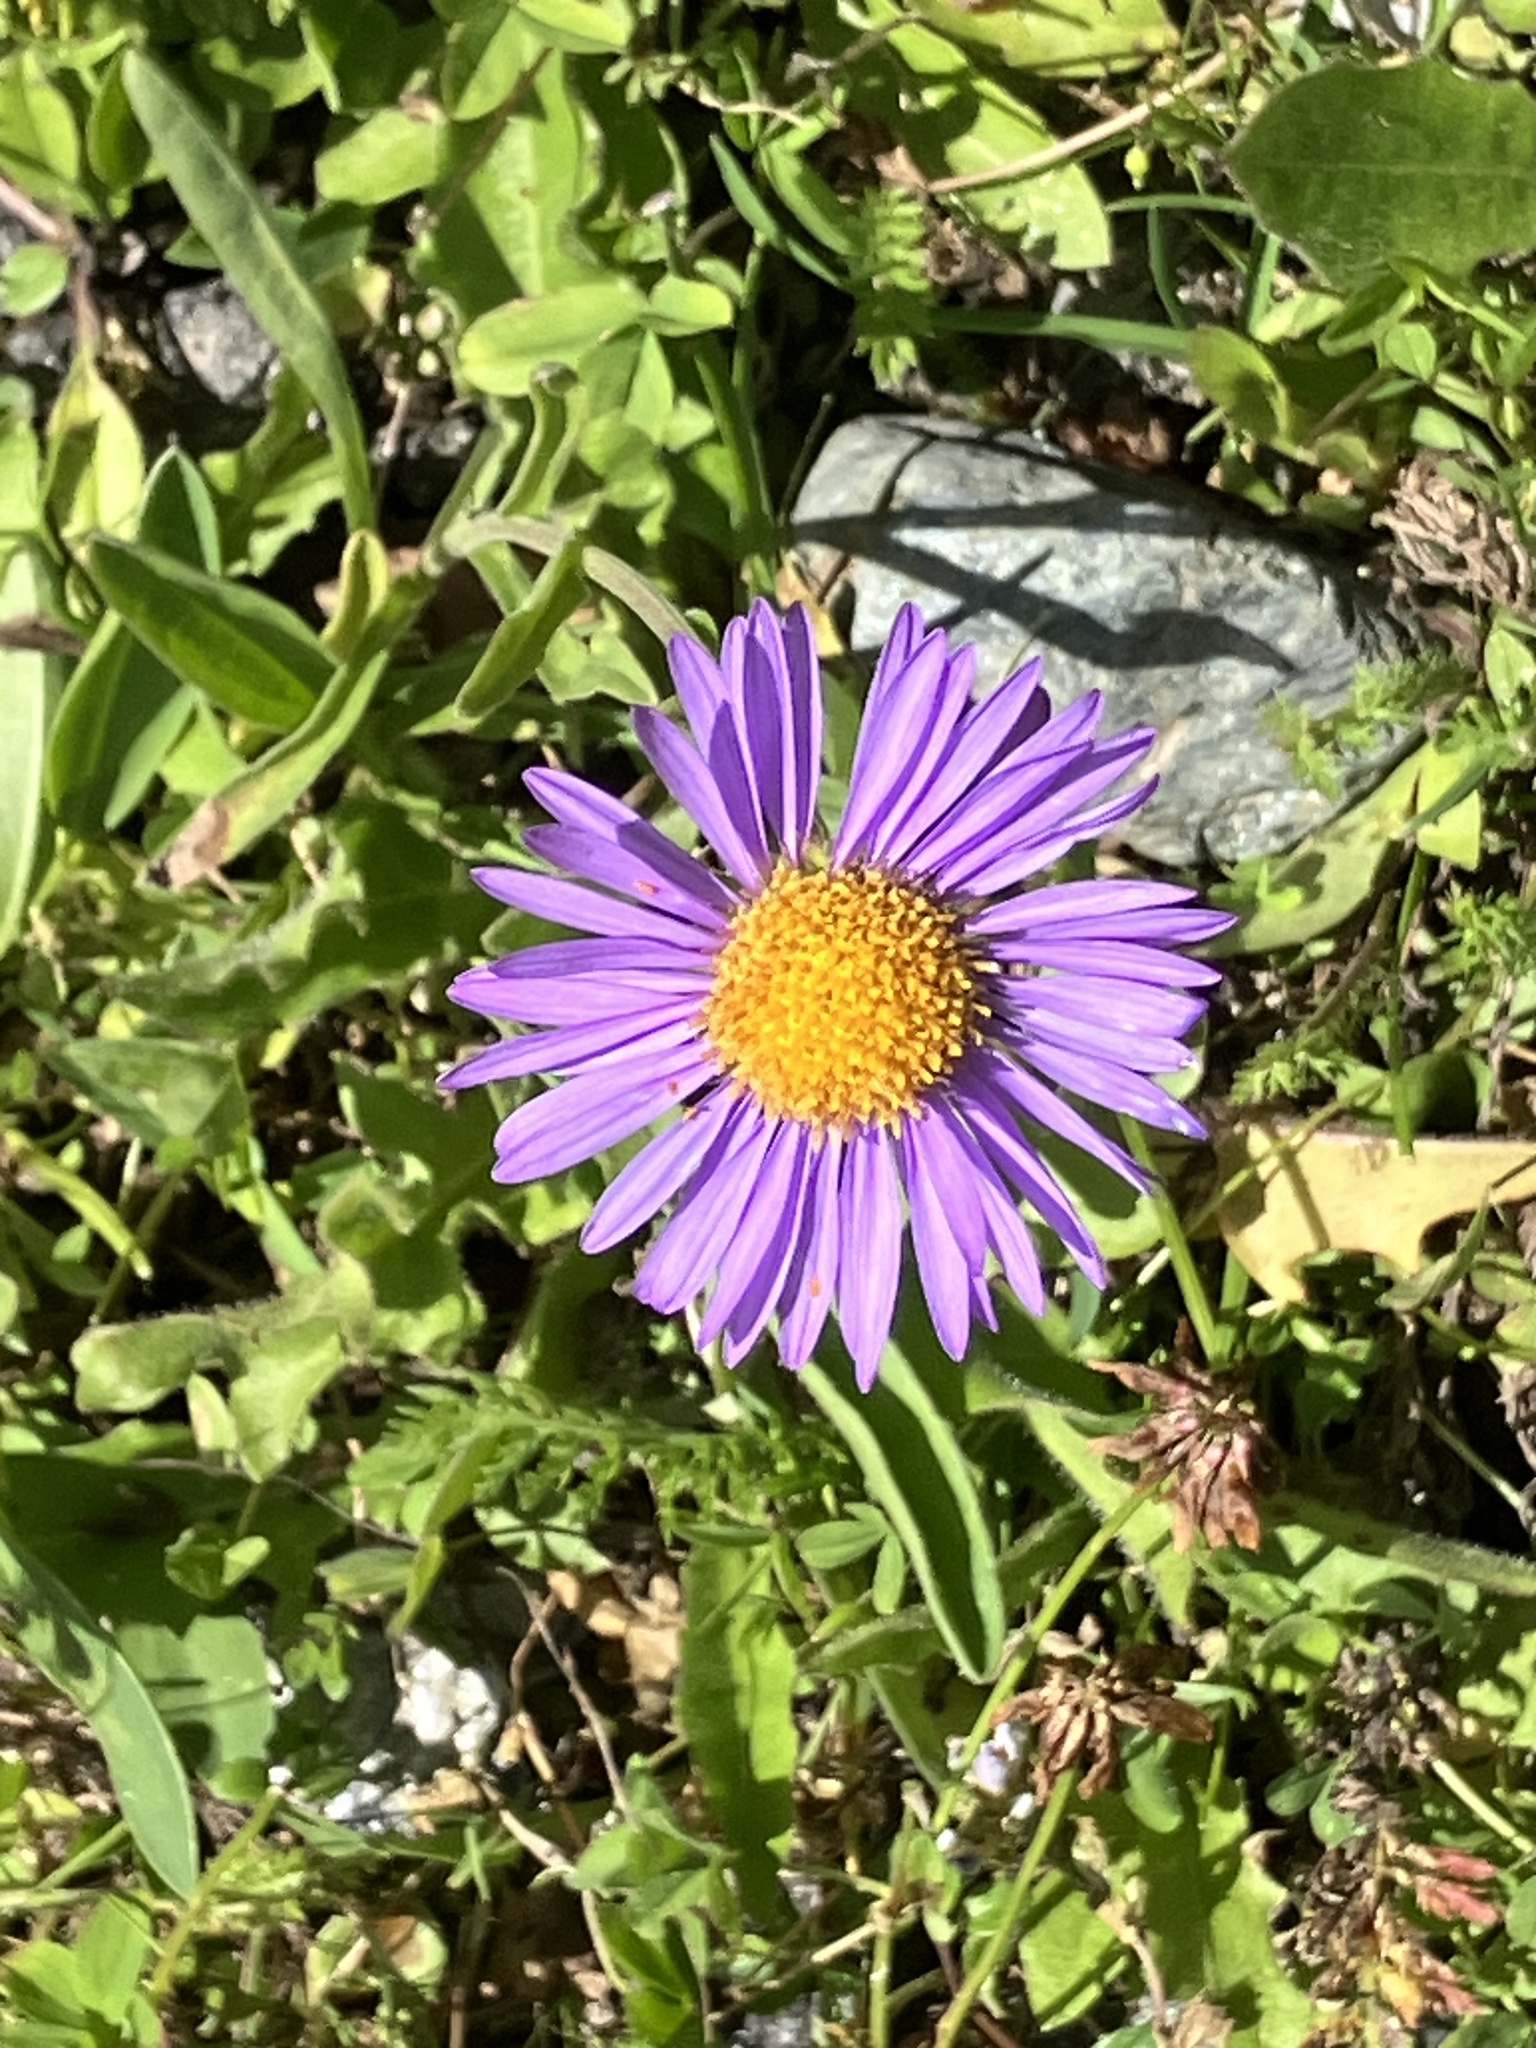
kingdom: Plantae
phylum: Tracheophyta
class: Magnoliopsida
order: Asterales
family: Asteraceae
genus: Aster
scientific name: Aster alpinus
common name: Alpine aster
